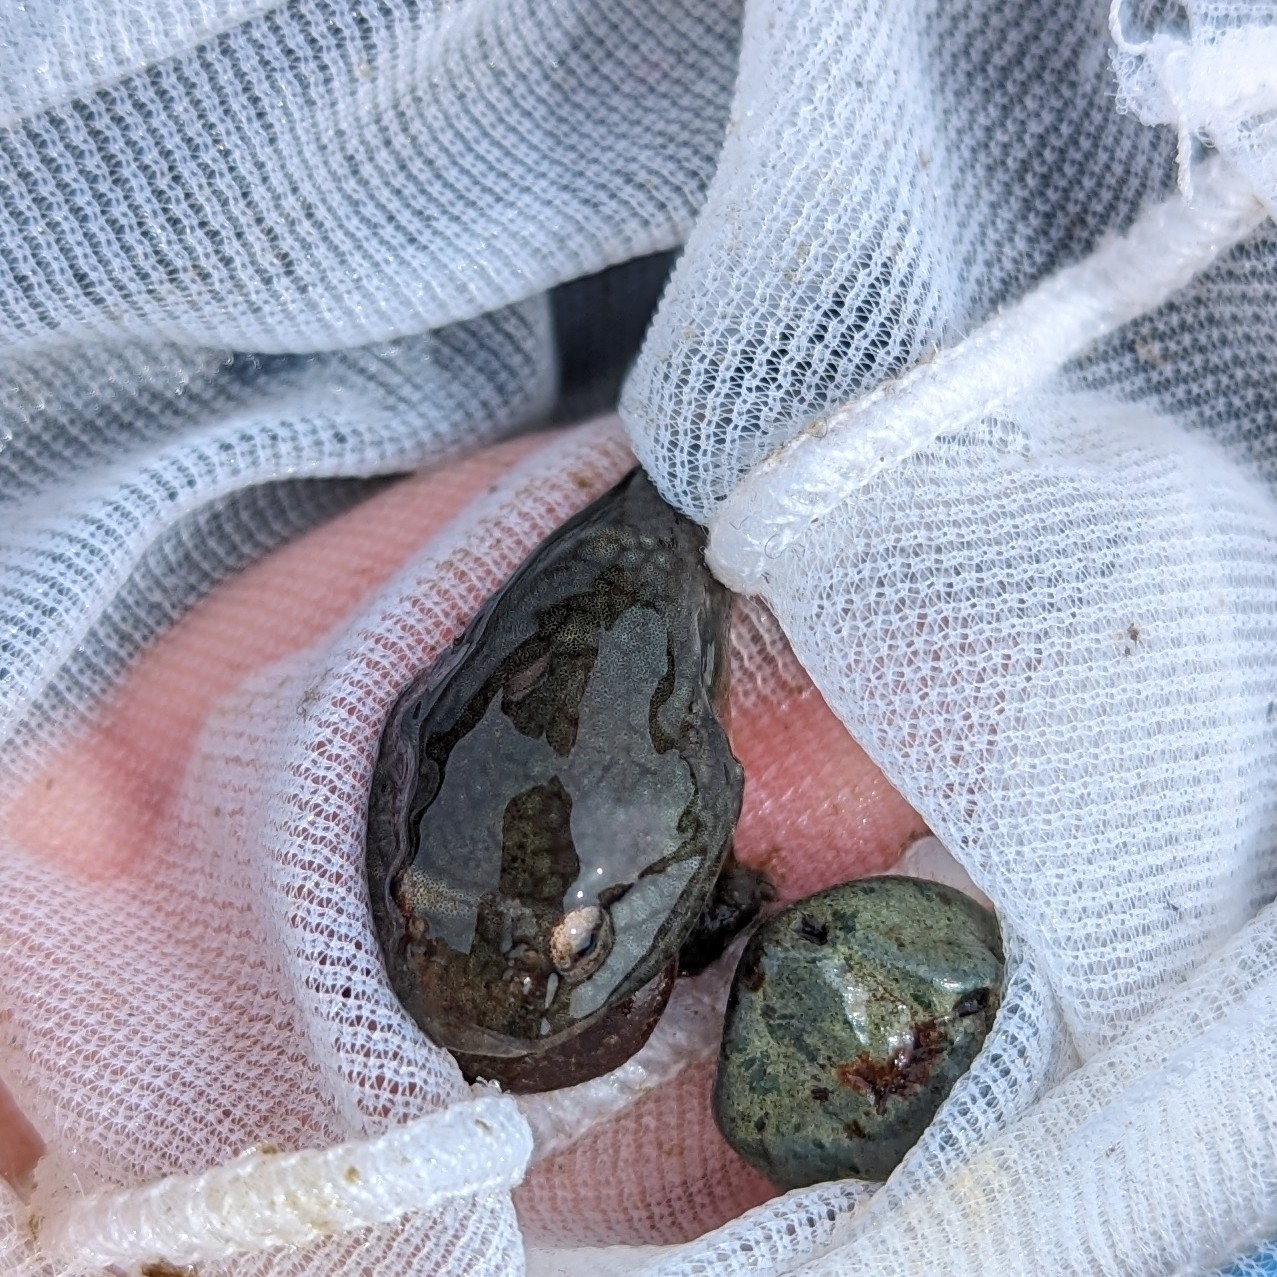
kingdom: Animalia
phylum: Chordata
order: Gobiesociformes
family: Gobiesocidae
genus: Gobiesox
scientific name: Gobiesox maeandricus
